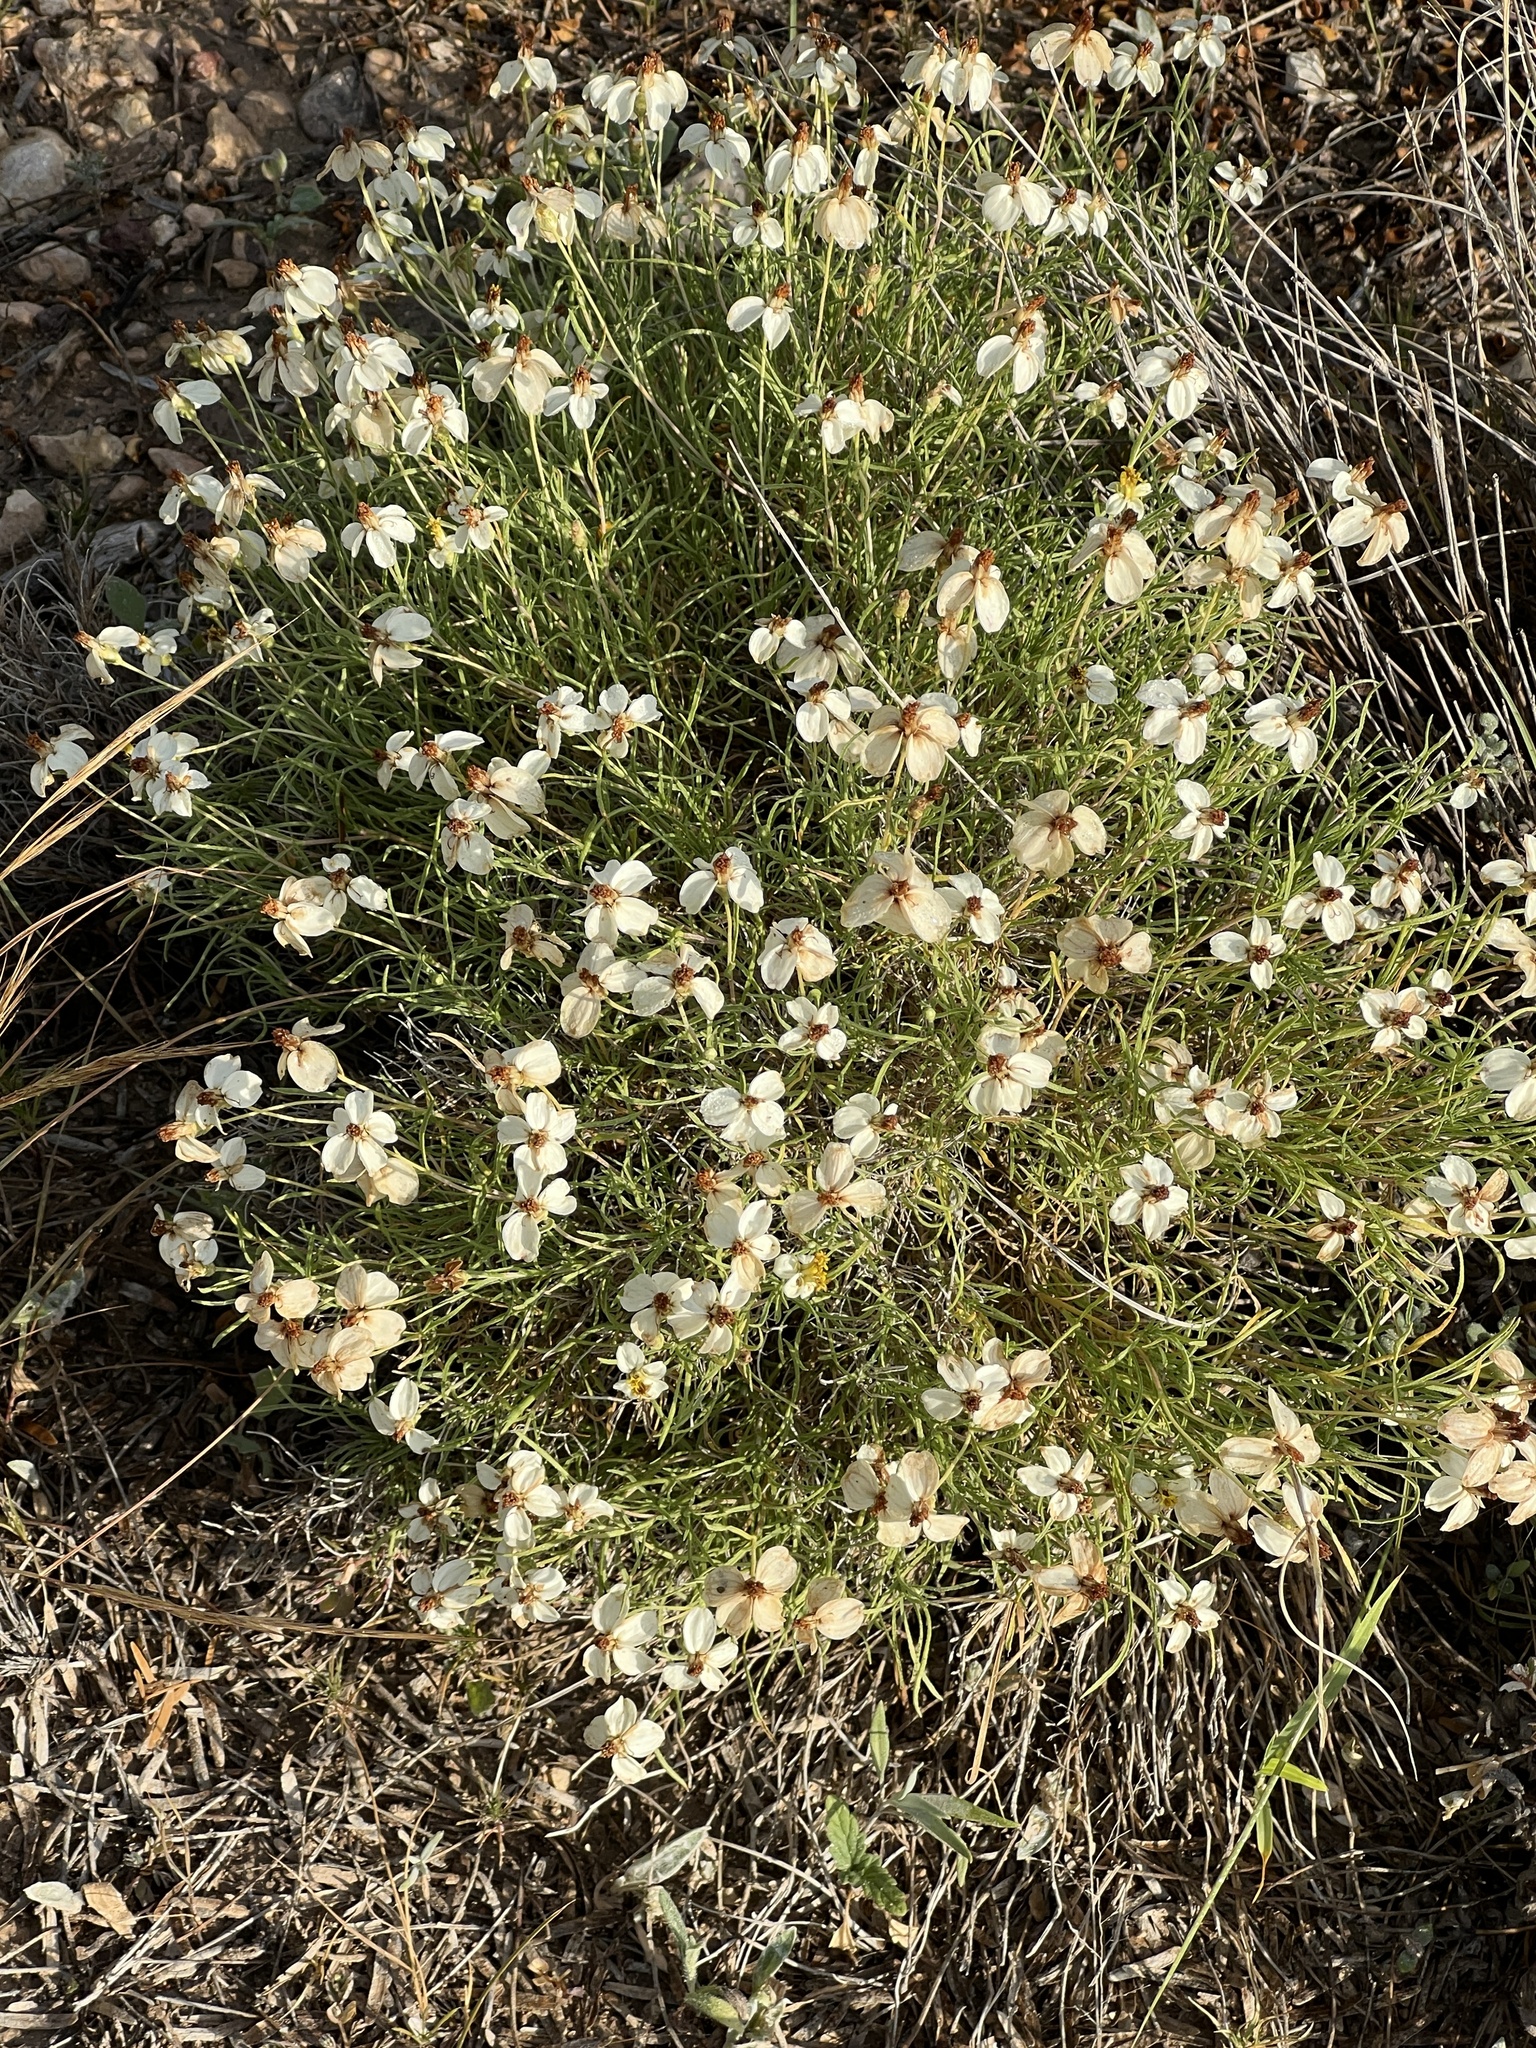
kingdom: Plantae
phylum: Tracheophyta
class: Magnoliopsida
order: Asterales
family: Asteraceae
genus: Zinnia
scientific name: Zinnia acerosa
